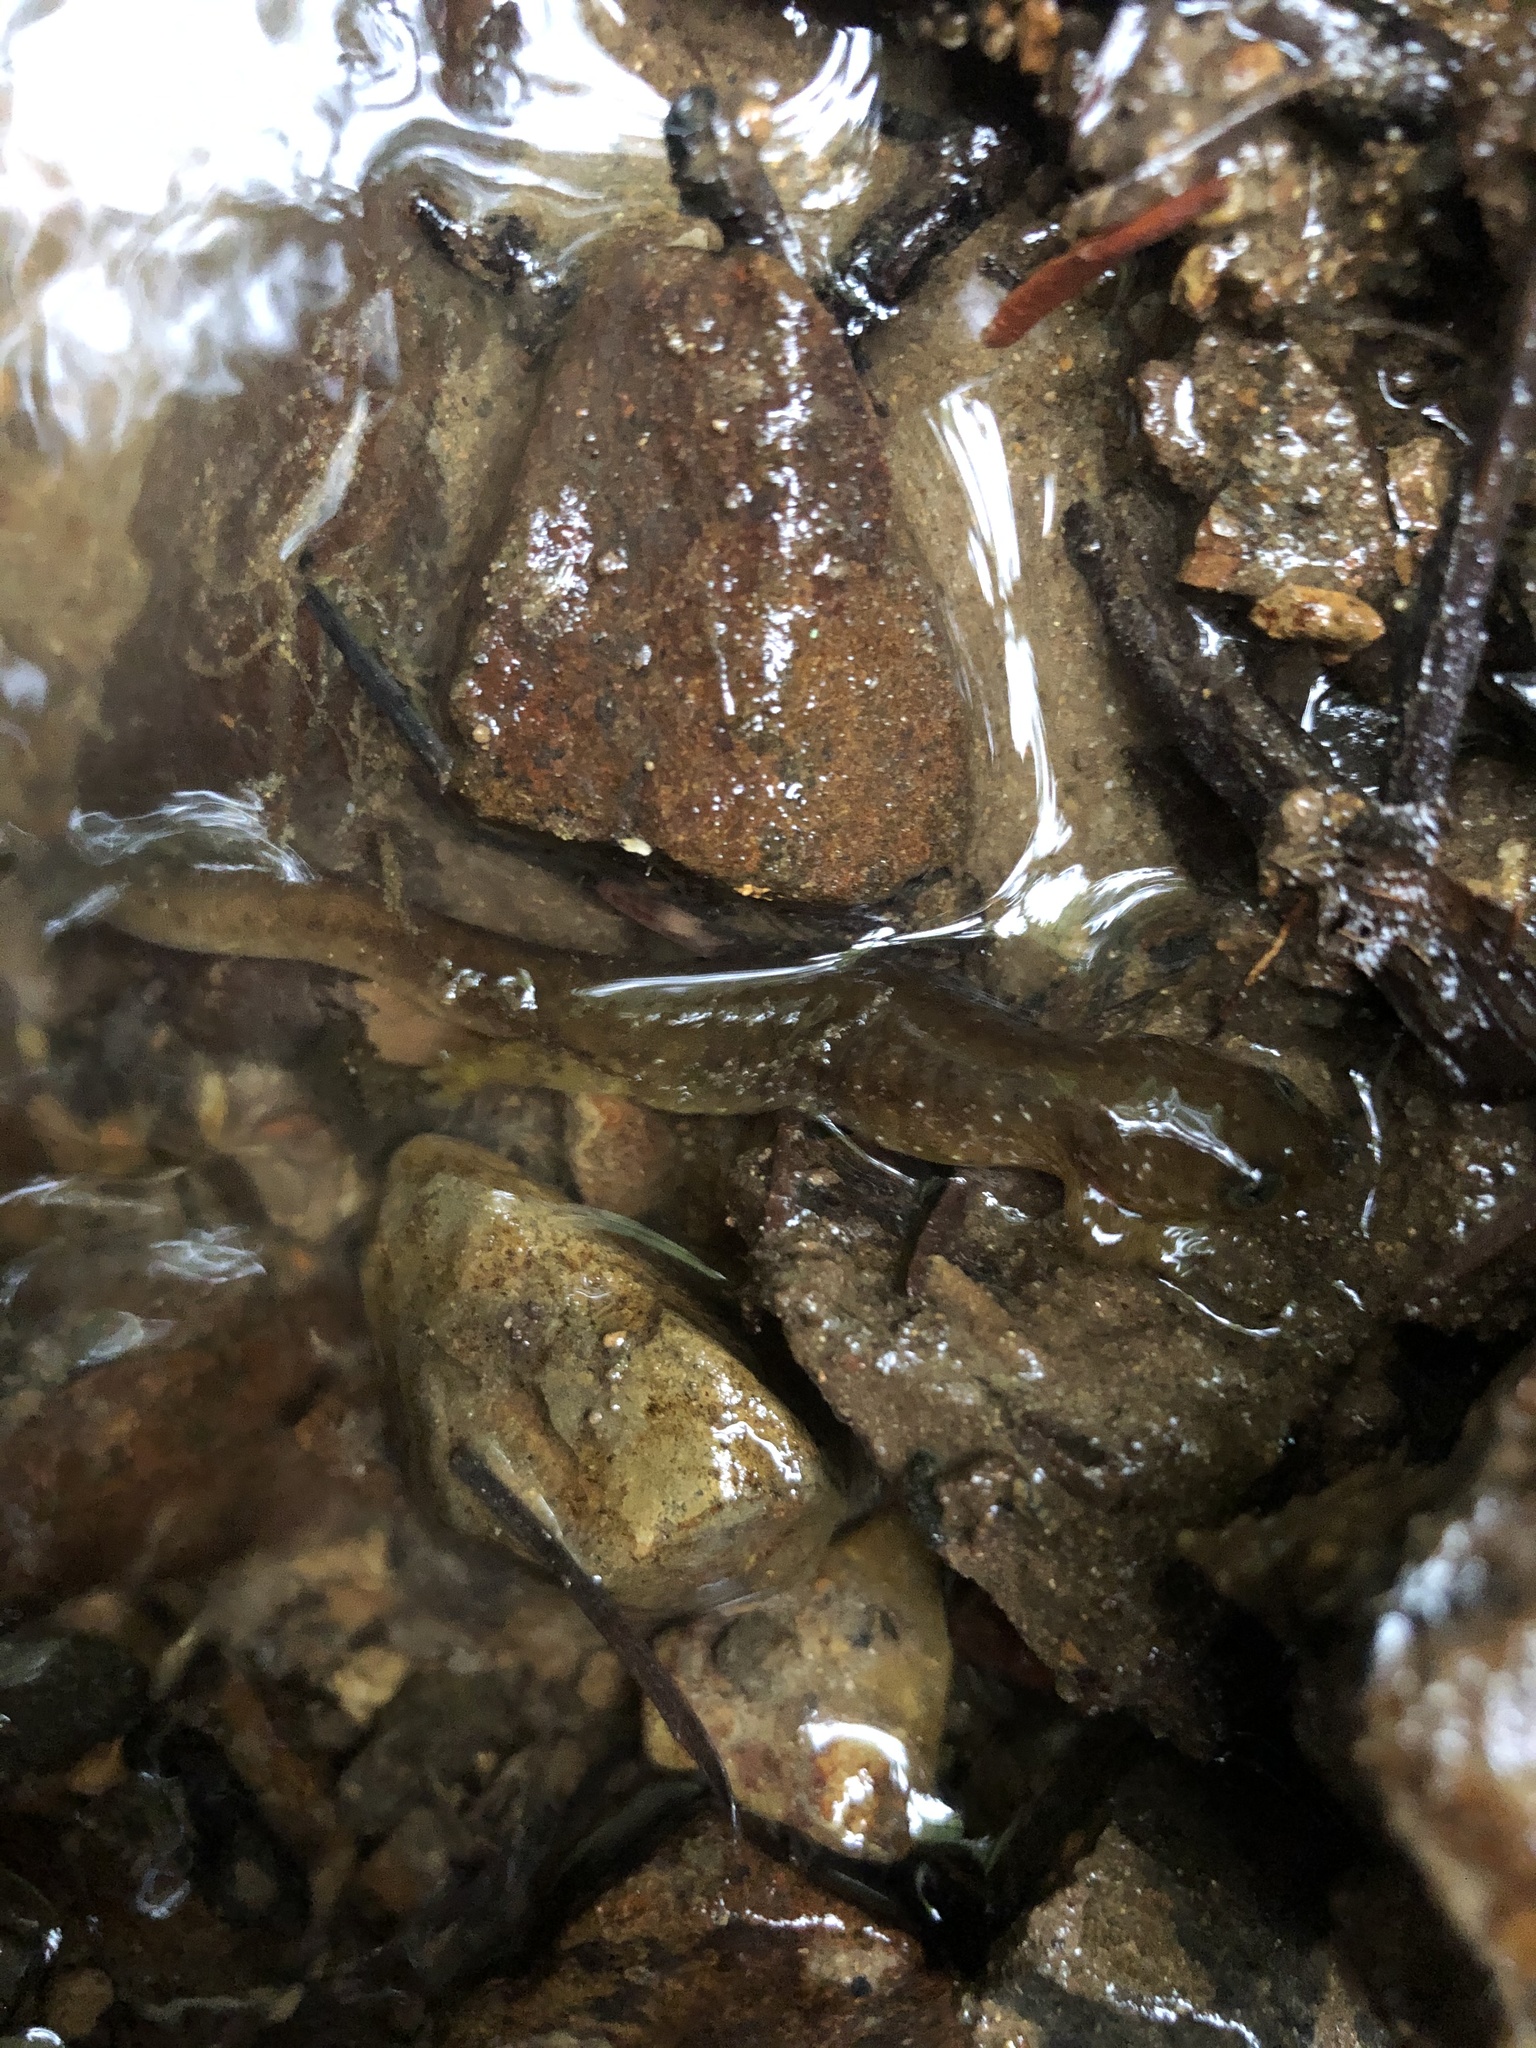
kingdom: Animalia
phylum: Chordata
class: Amphibia
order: Caudata
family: Rhyacotritonidae
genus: Rhyacotriton
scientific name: Rhyacotriton kezeri
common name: Columbia torrent salamander
